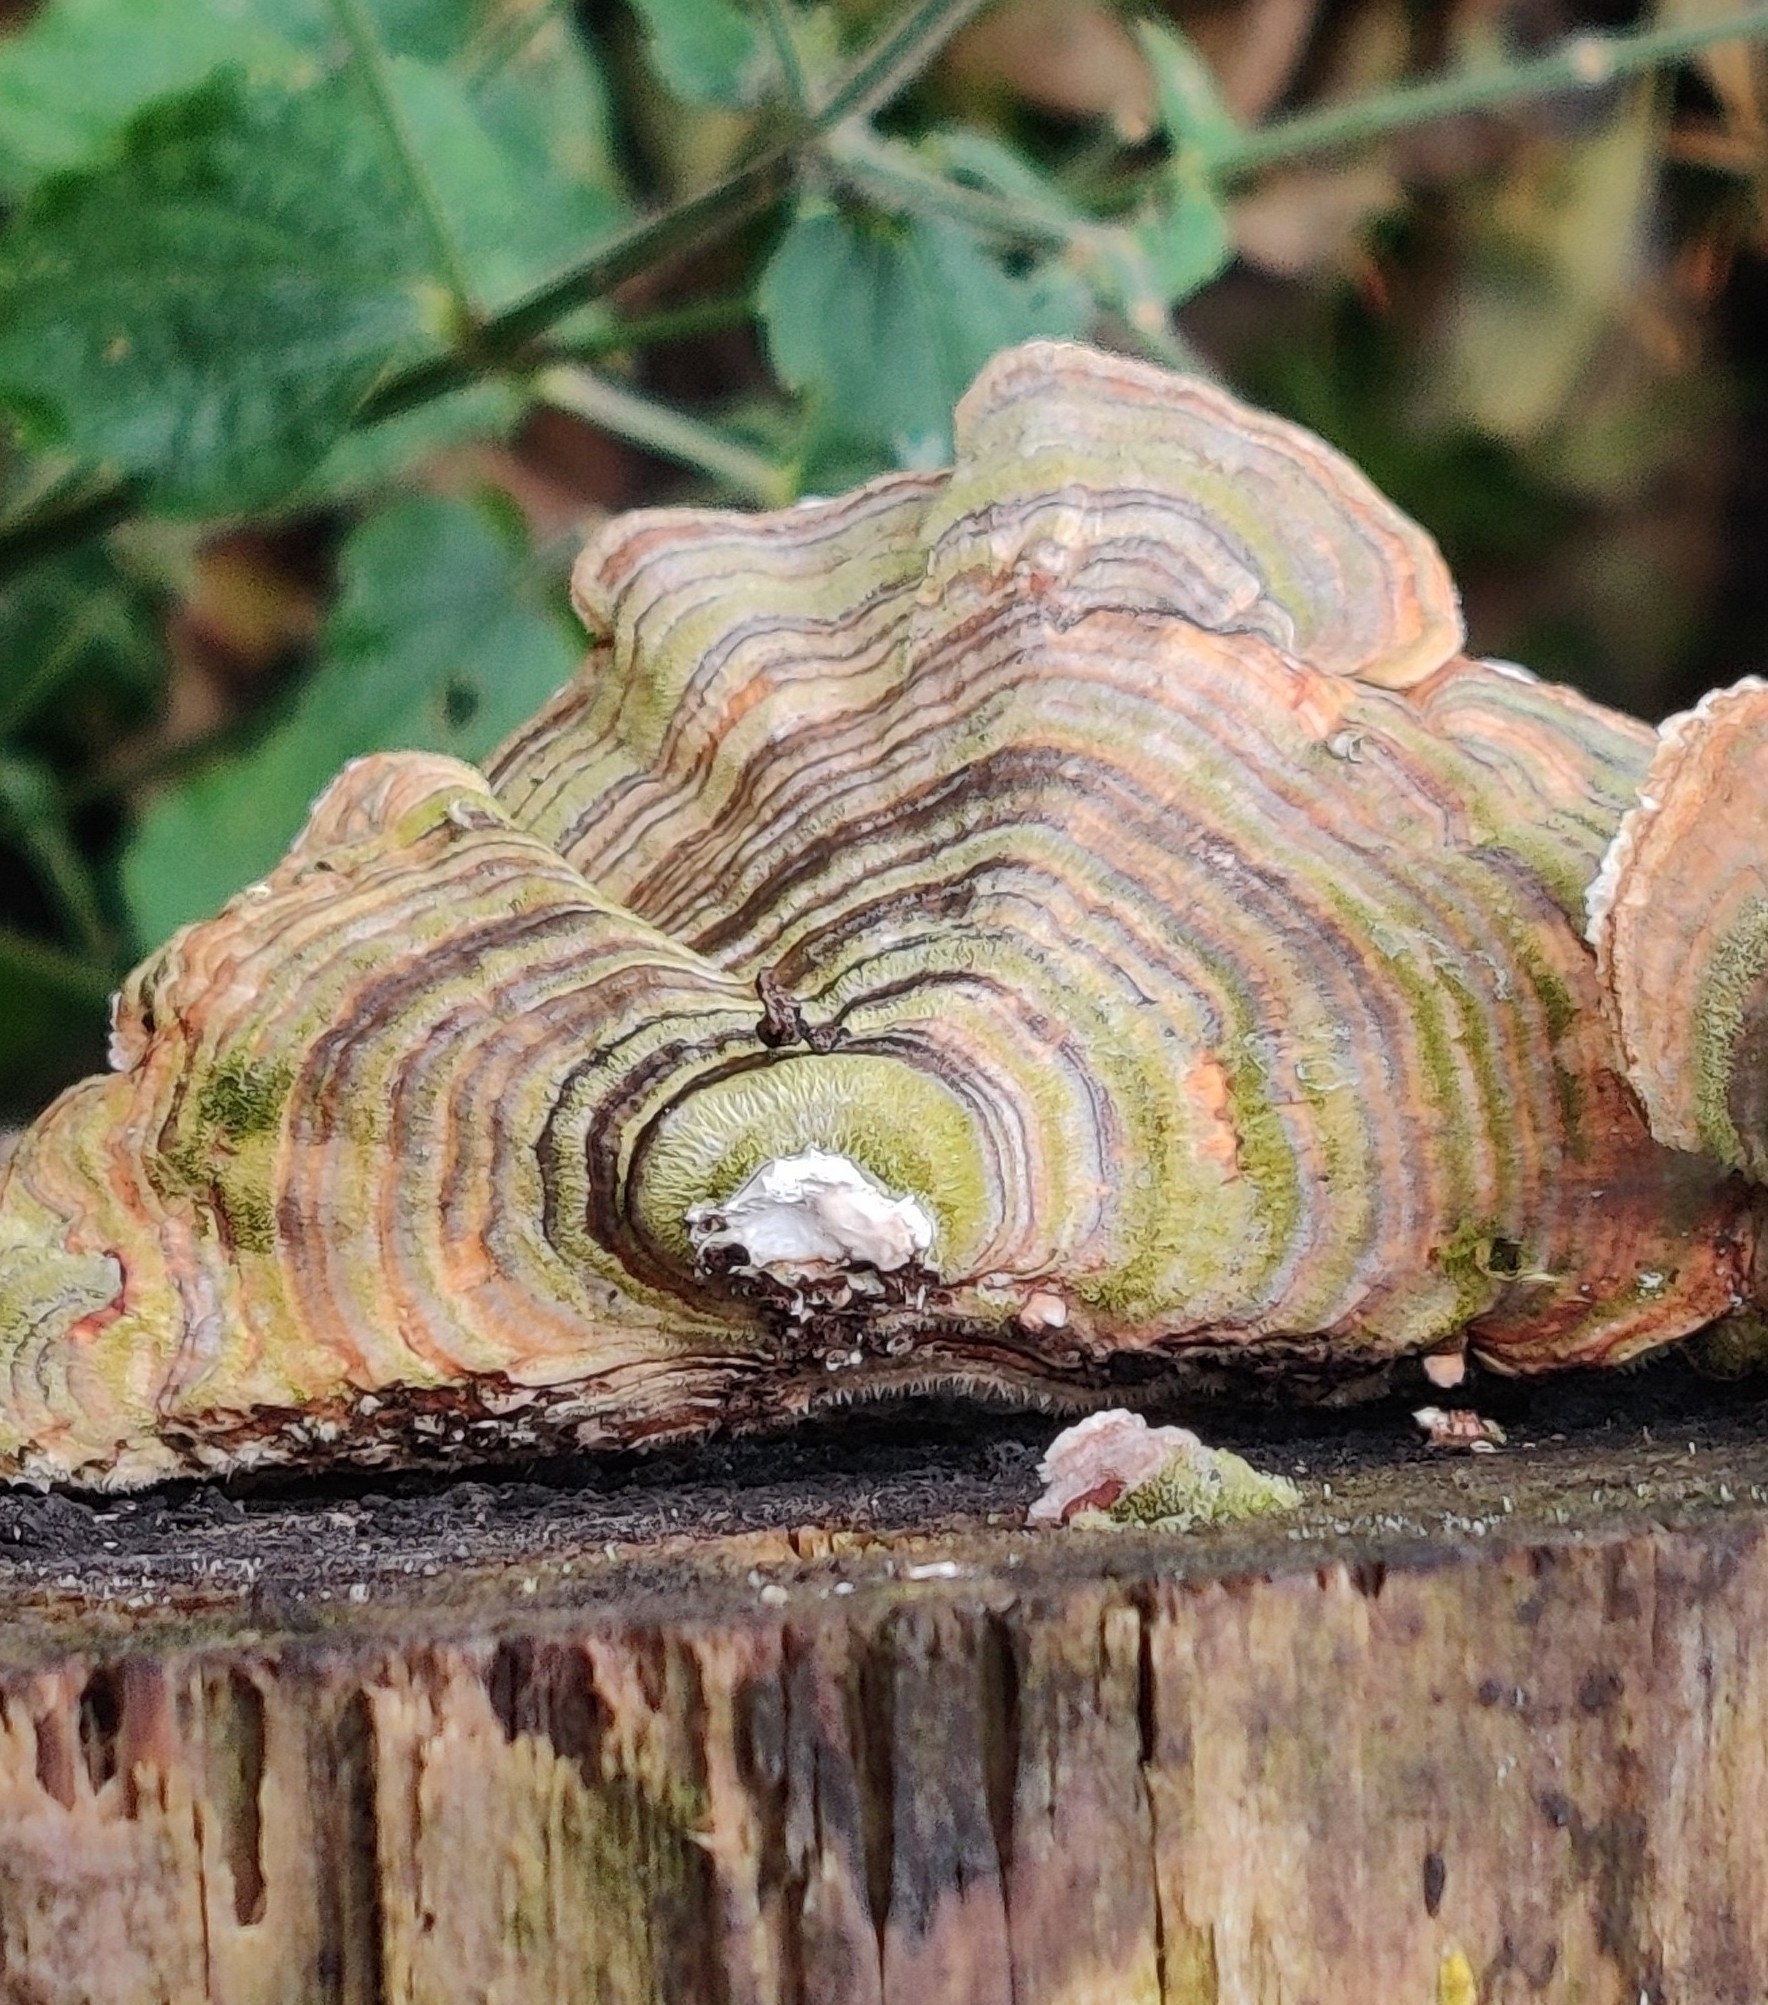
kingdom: Fungi
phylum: Basidiomycota
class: Agaricomycetes
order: Polyporales
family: Polyporaceae
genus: Trametes
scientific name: Trametes versicolor
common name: Turkeytail
